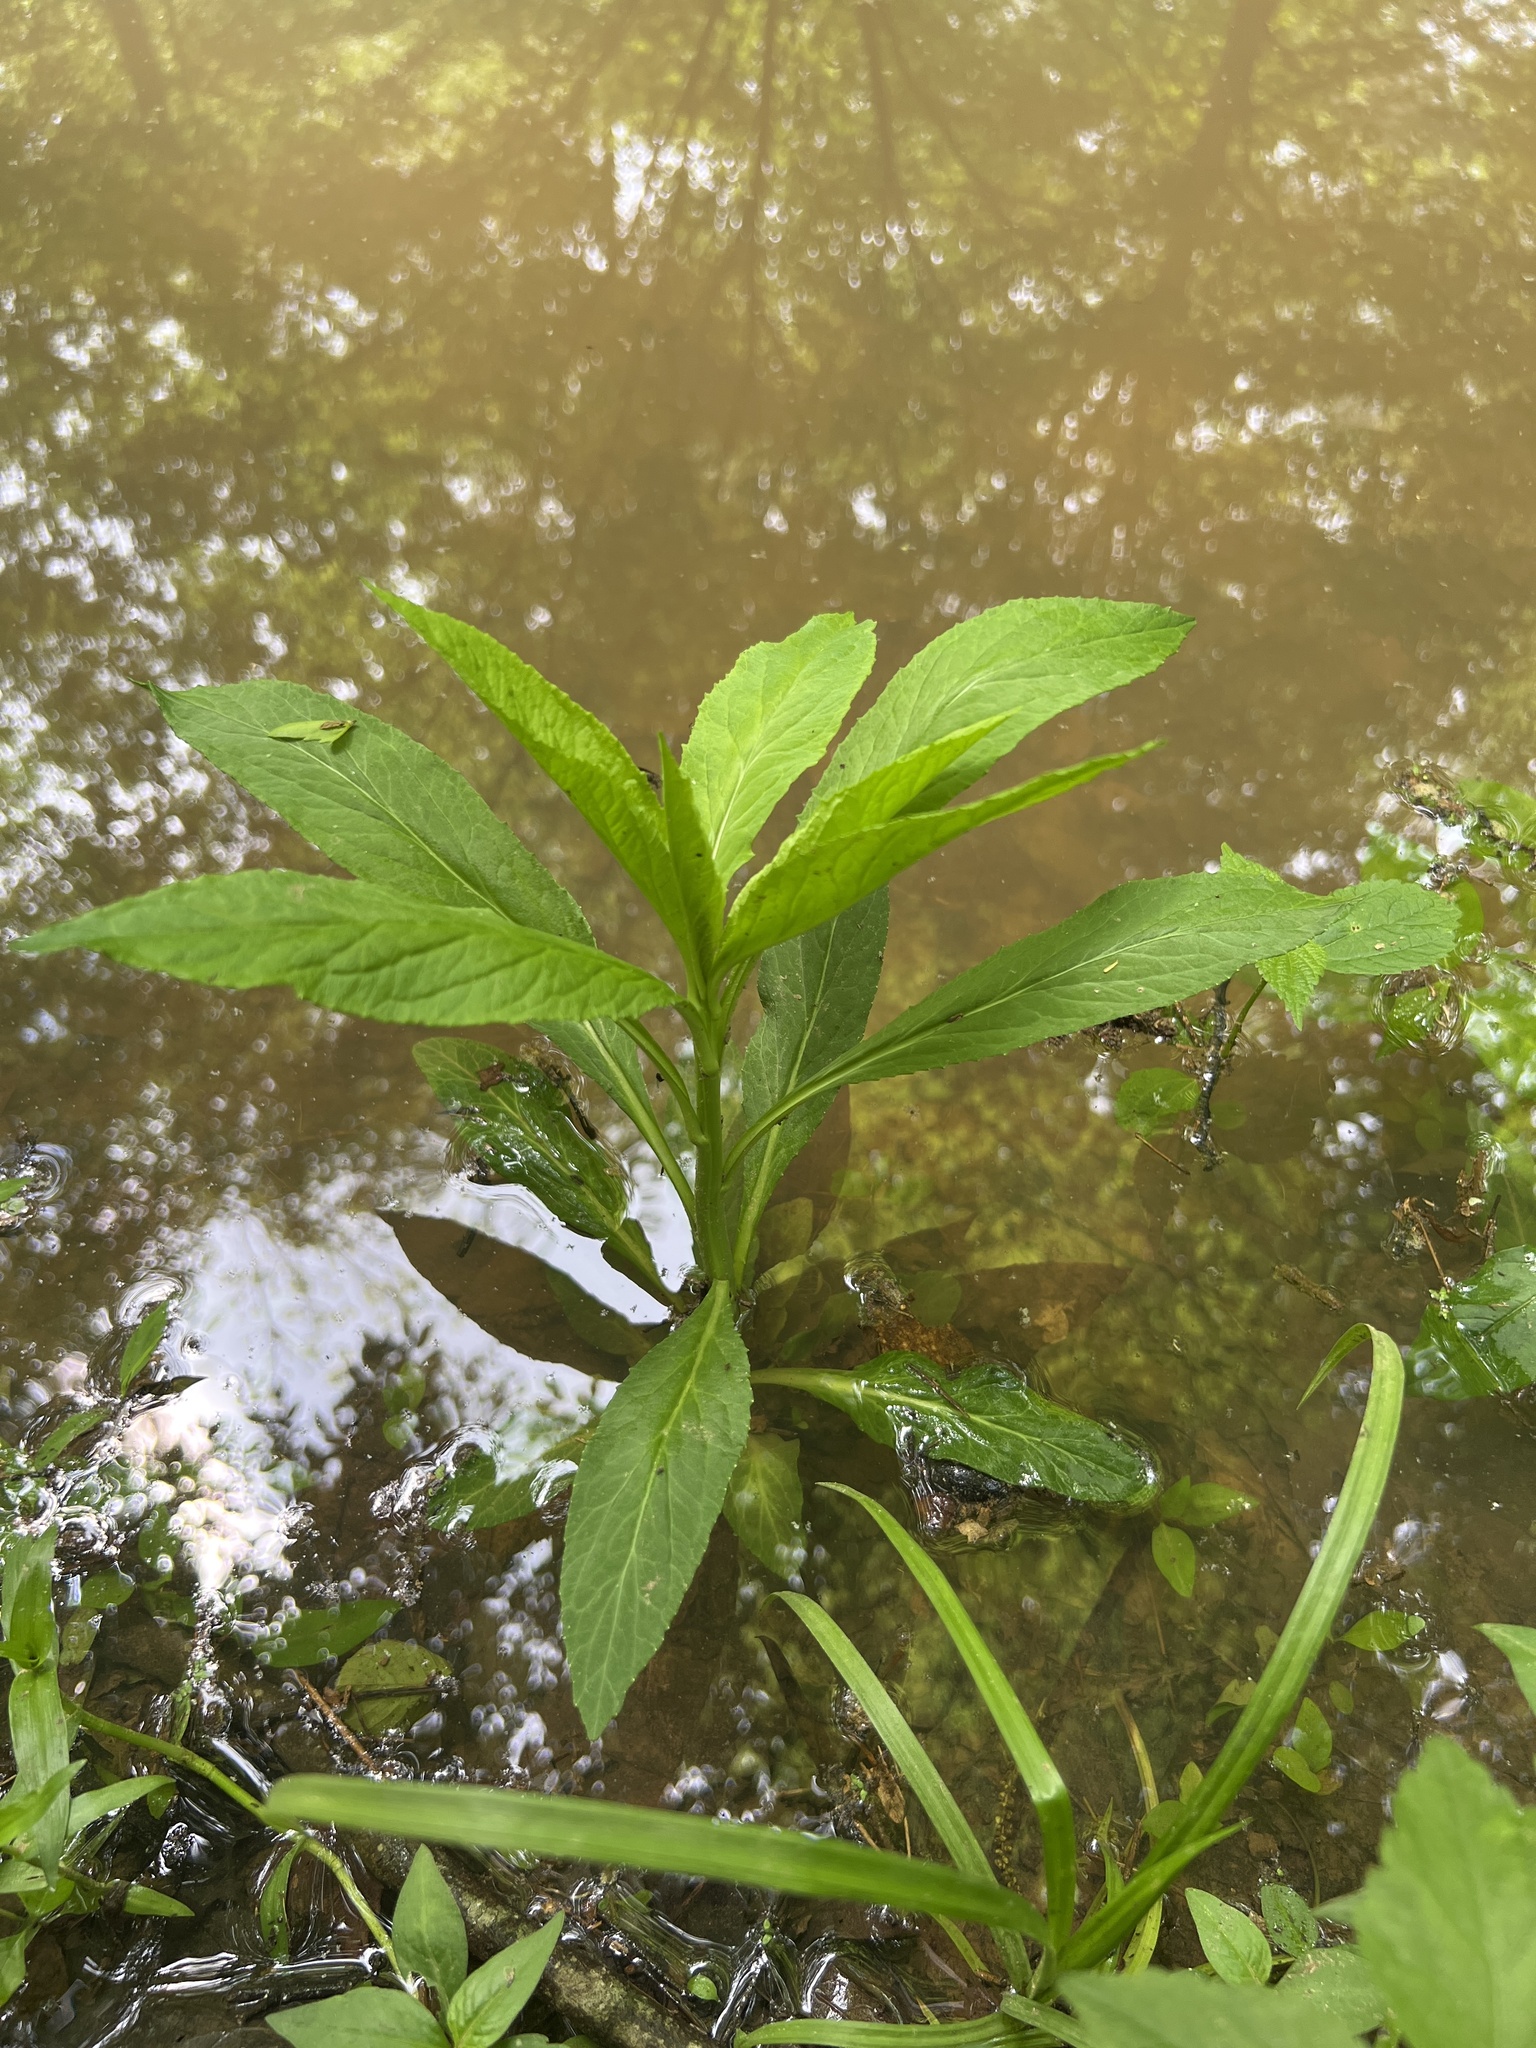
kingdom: Plantae
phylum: Tracheophyta
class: Magnoliopsida
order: Asterales
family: Campanulaceae
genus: Lobelia
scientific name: Lobelia cardinalis
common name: Cardinal flower
